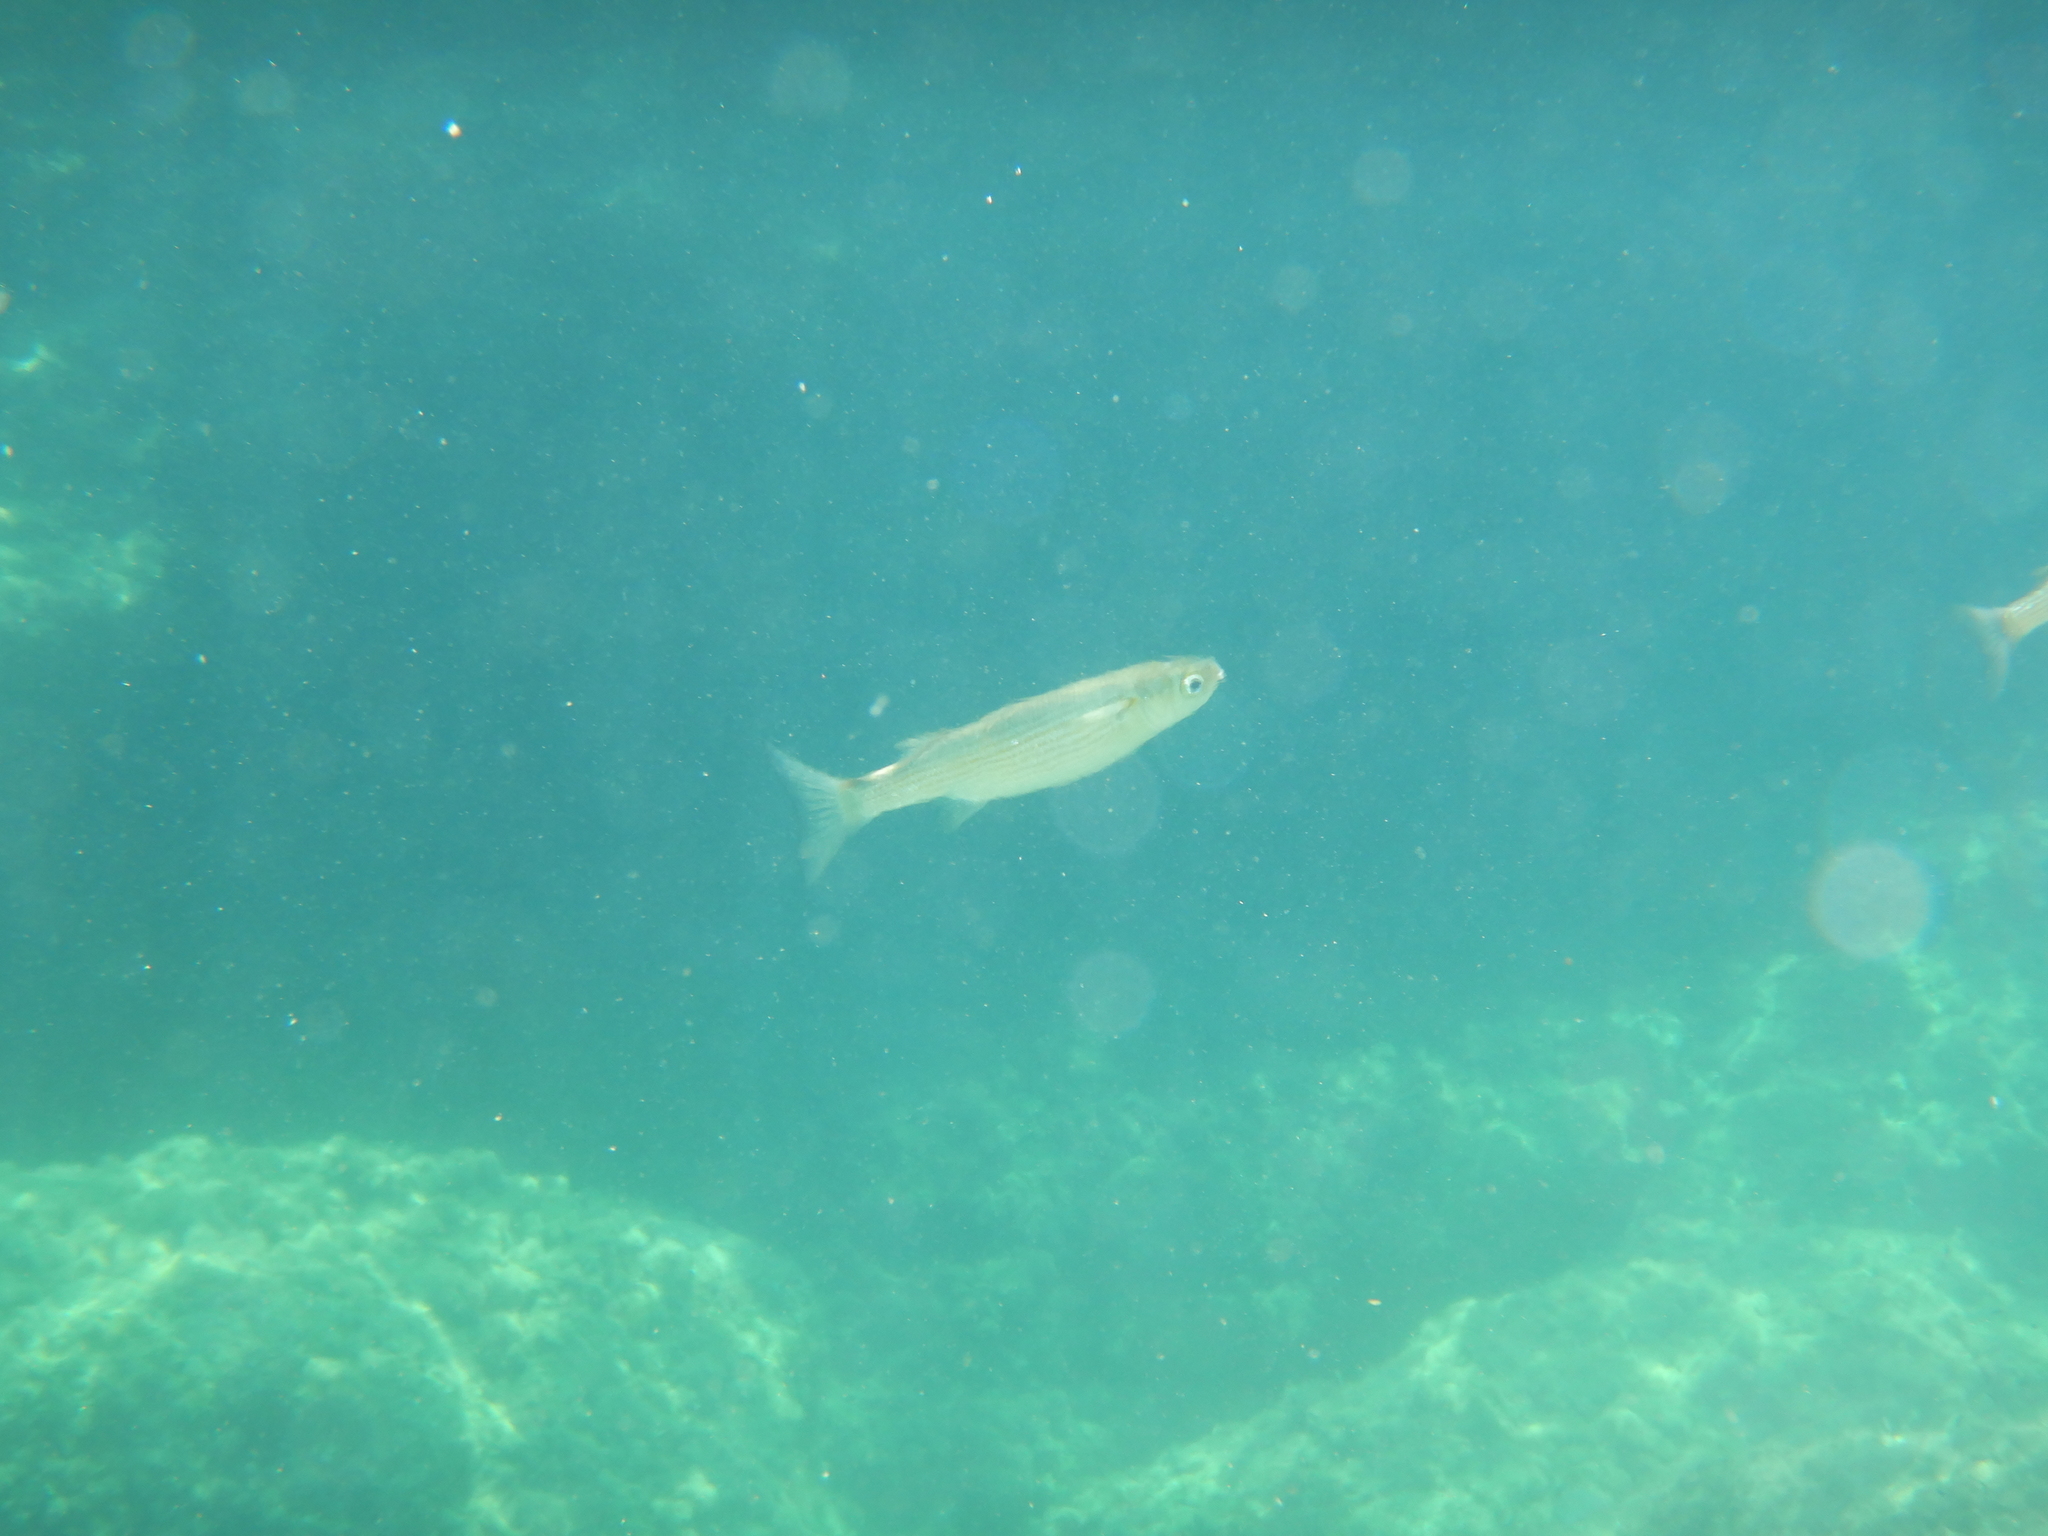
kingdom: Animalia
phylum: Chordata
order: Mugiliformes
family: Mugilidae
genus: Oedalechilus
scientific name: Oedalechilus labeo
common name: Boxlip mullet
